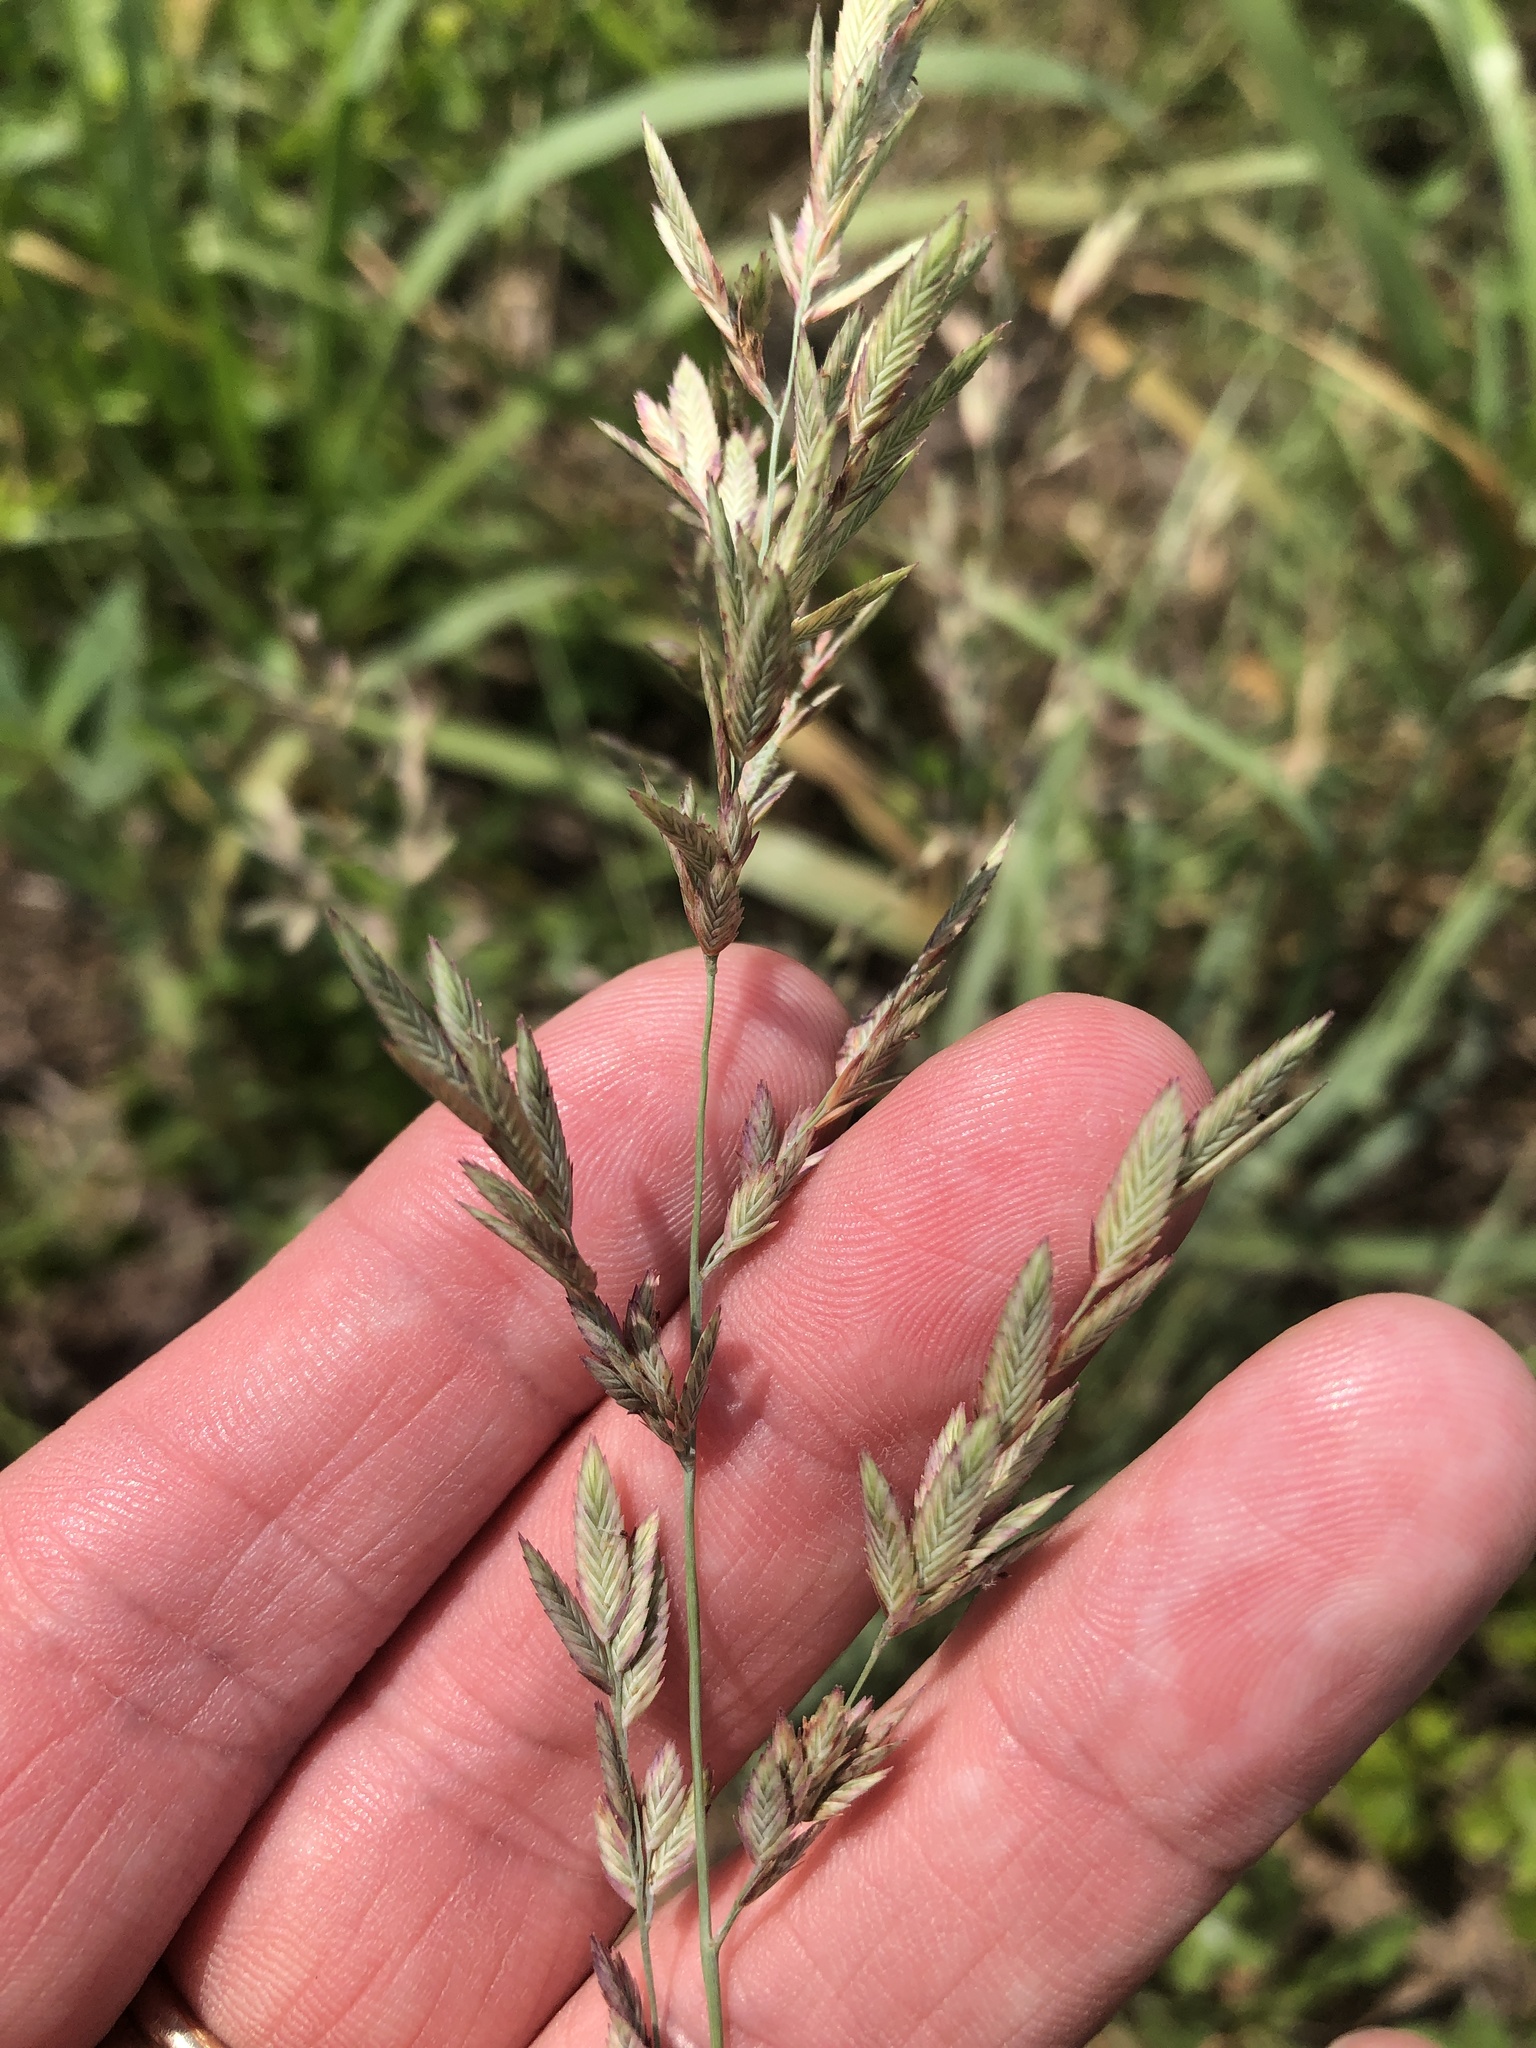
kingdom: Plantae
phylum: Tracheophyta
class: Liliopsida
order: Poales
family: Poaceae
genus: Eragrostis
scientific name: Eragrostis secundiflora
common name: Red love grass
